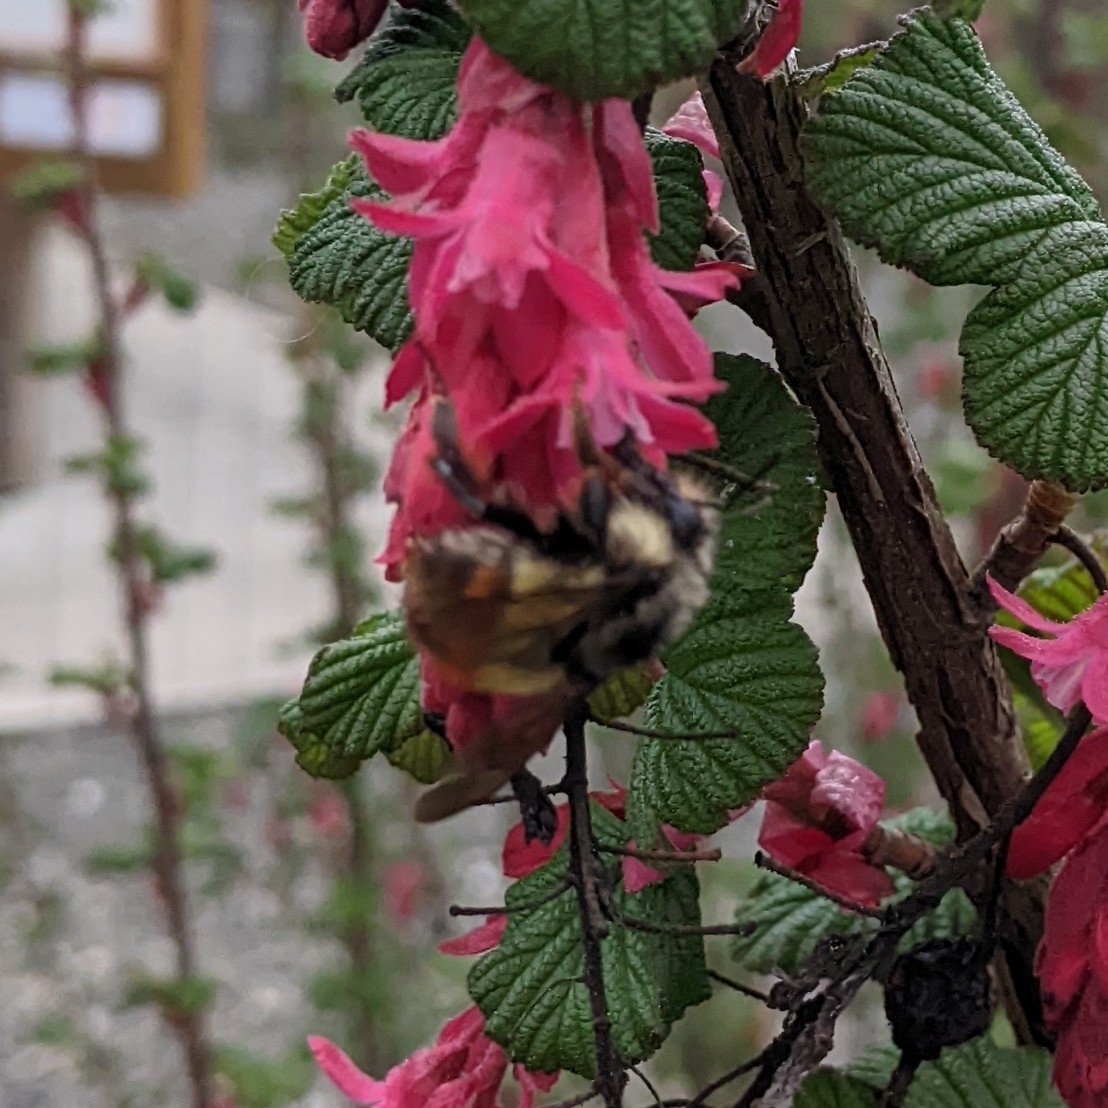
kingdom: Animalia
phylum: Arthropoda
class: Insecta
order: Hymenoptera
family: Apidae
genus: Bombus
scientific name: Bombus flavifrons
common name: Yellow head bumble bee
